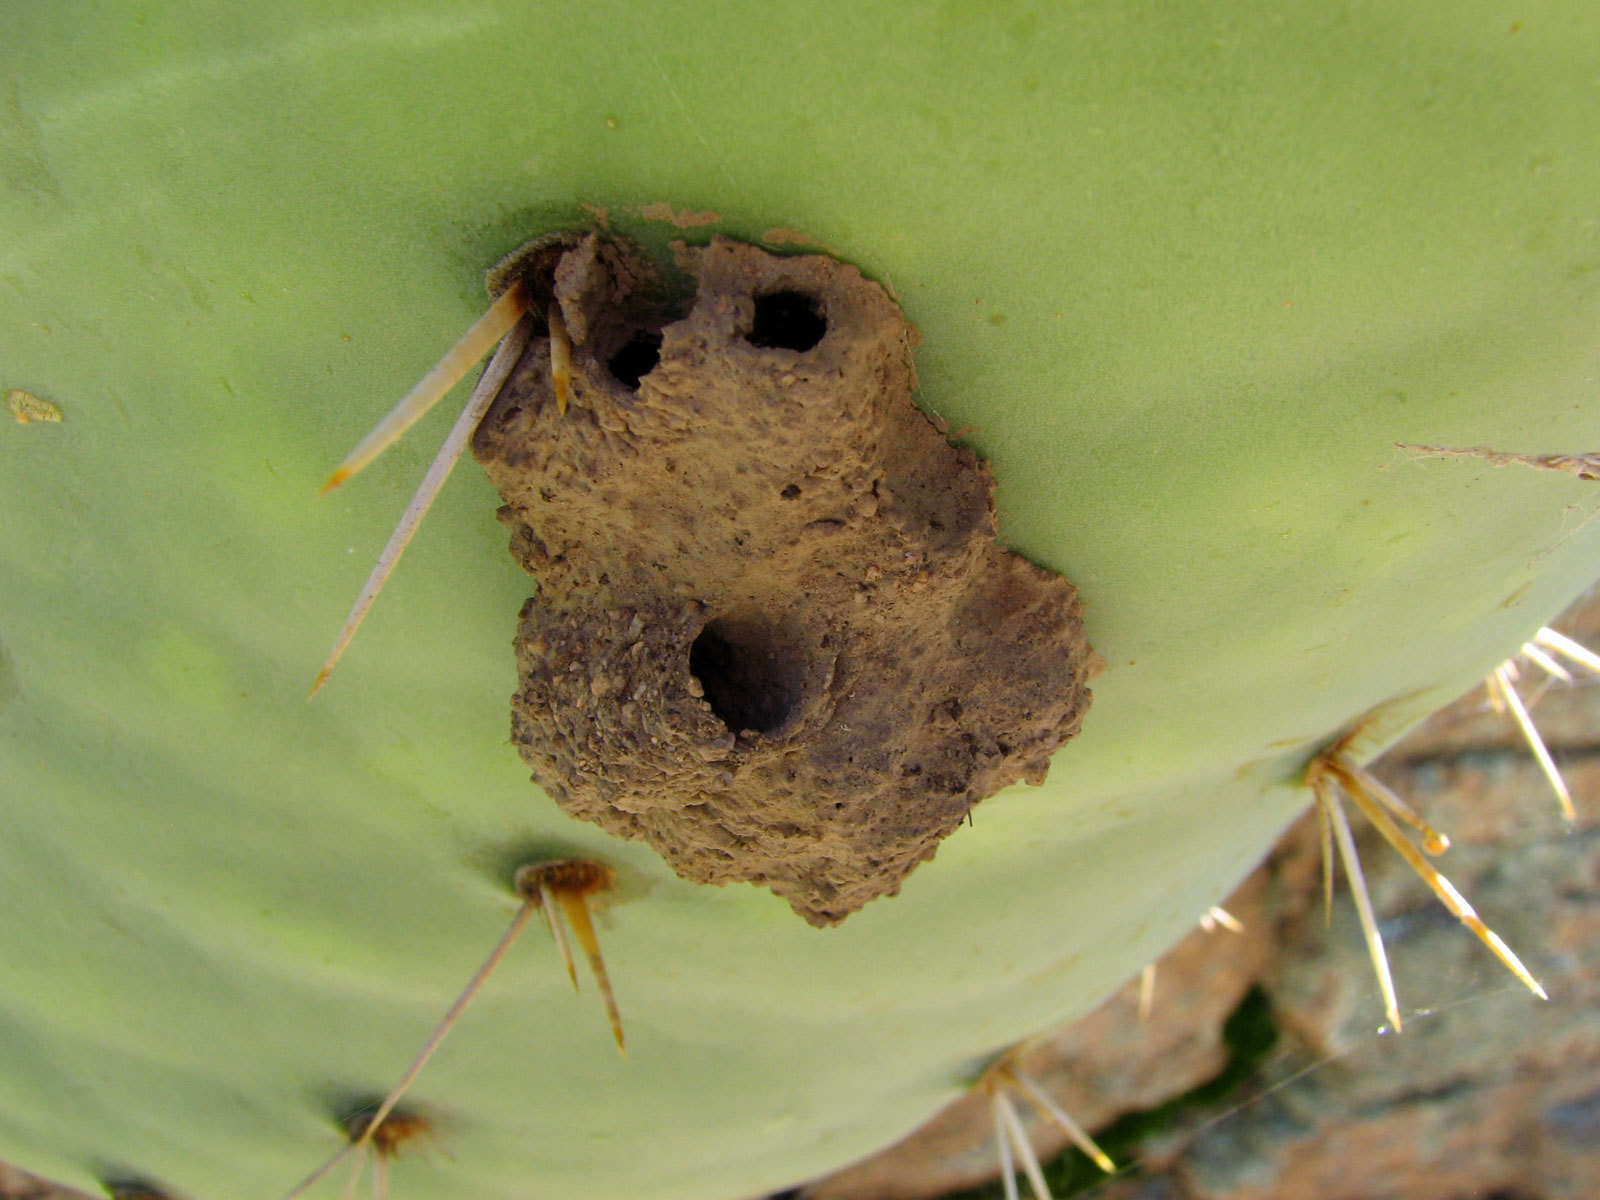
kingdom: Animalia
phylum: Arthropoda
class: Insecta
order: Hymenoptera
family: Sphecidae
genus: Sceliphron
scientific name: Sceliphron caementarium
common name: Mud dauber
